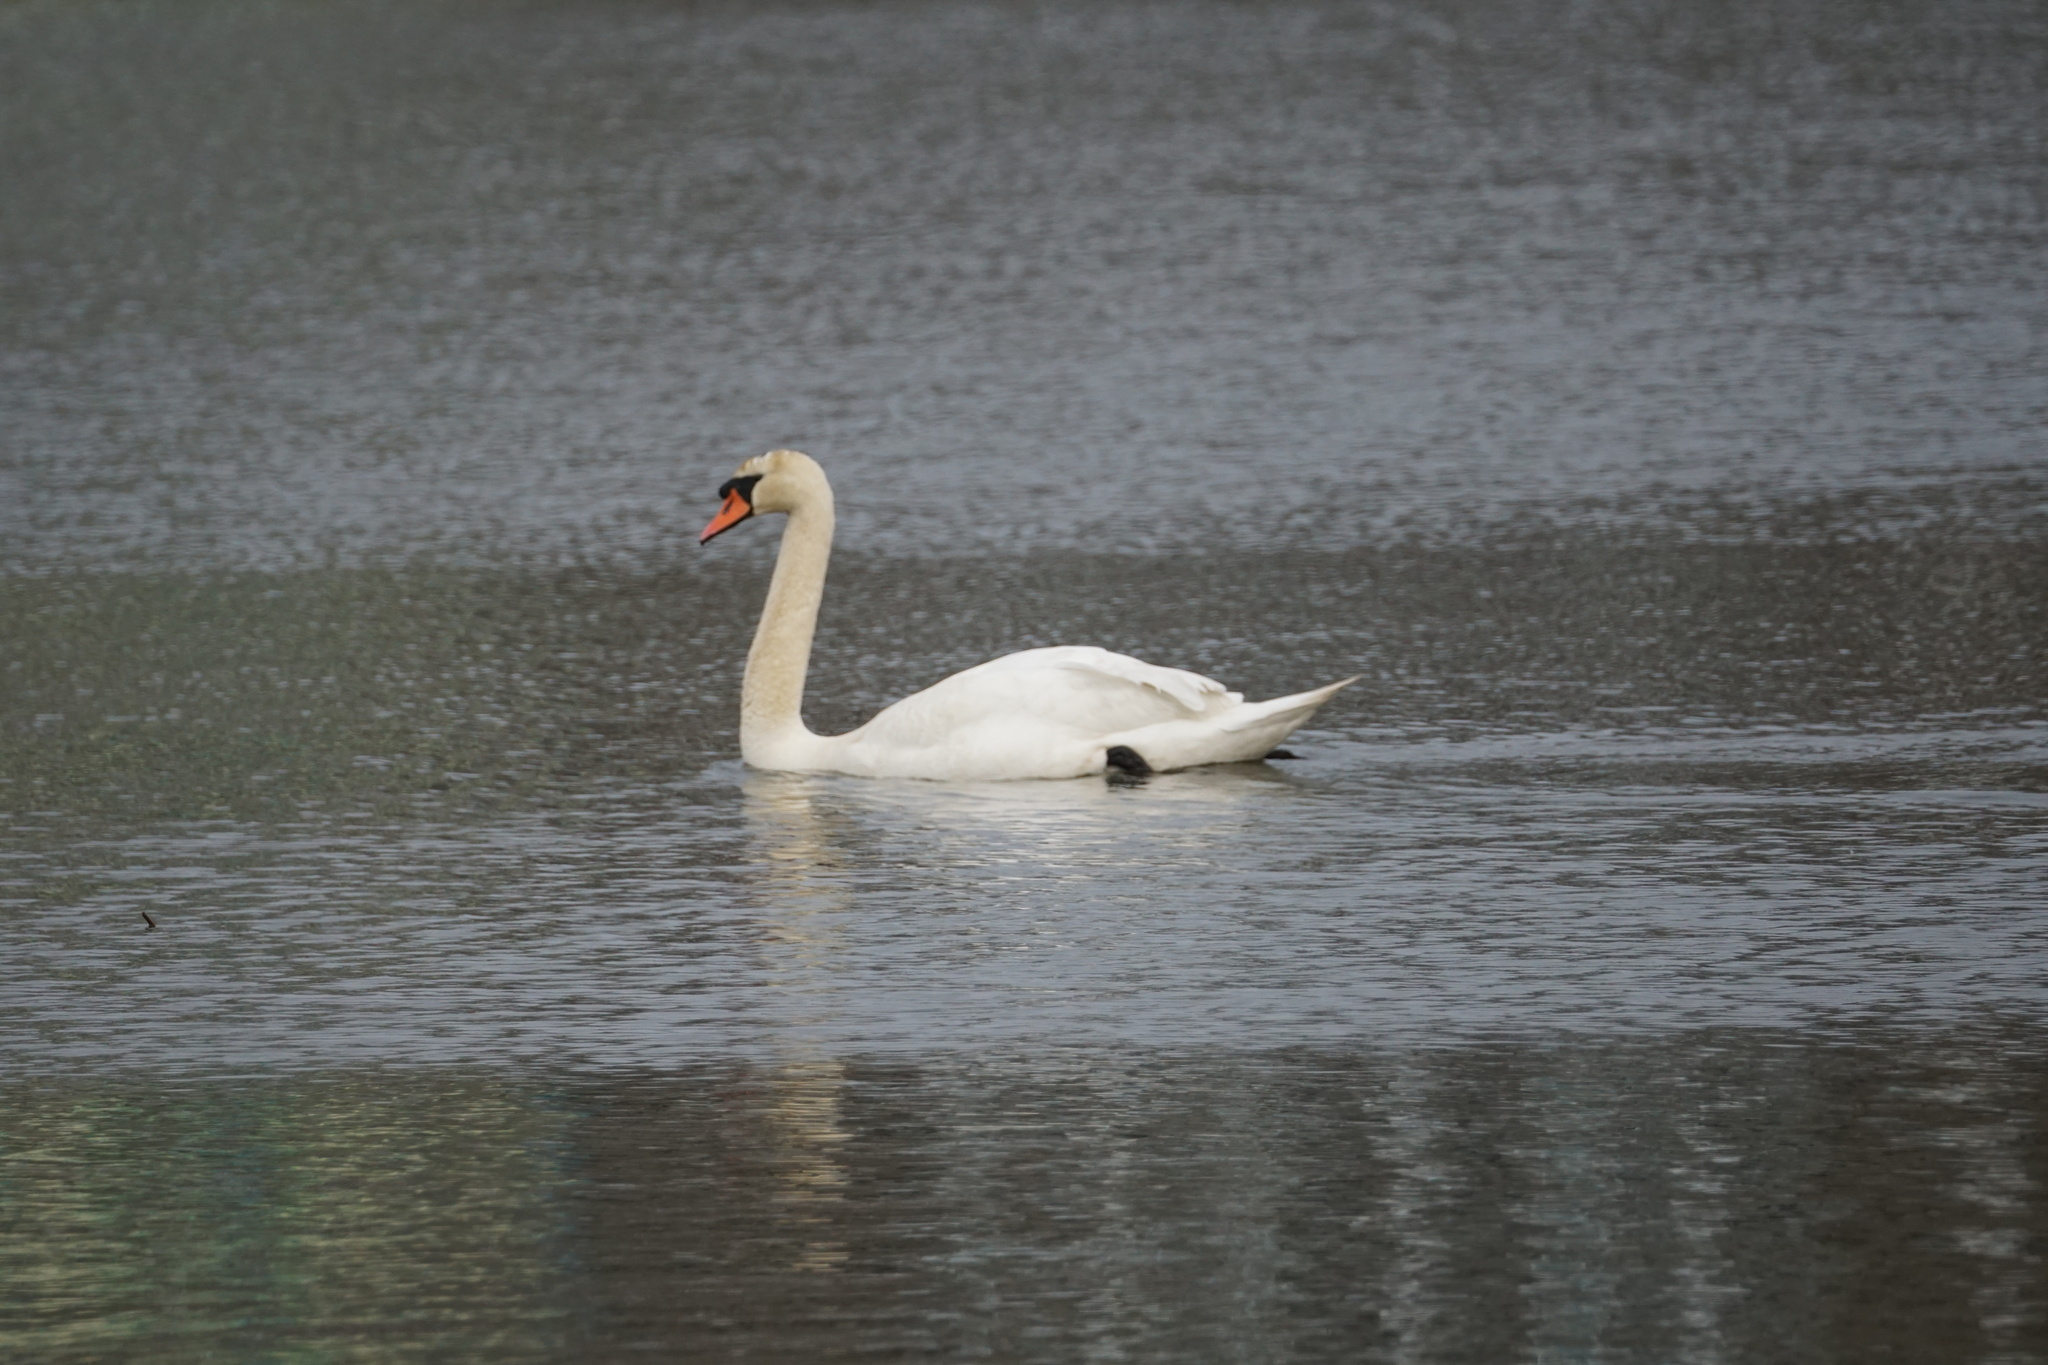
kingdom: Animalia
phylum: Chordata
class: Aves
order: Anseriformes
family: Anatidae
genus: Cygnus
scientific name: Cygnus olor
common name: Mute swan
